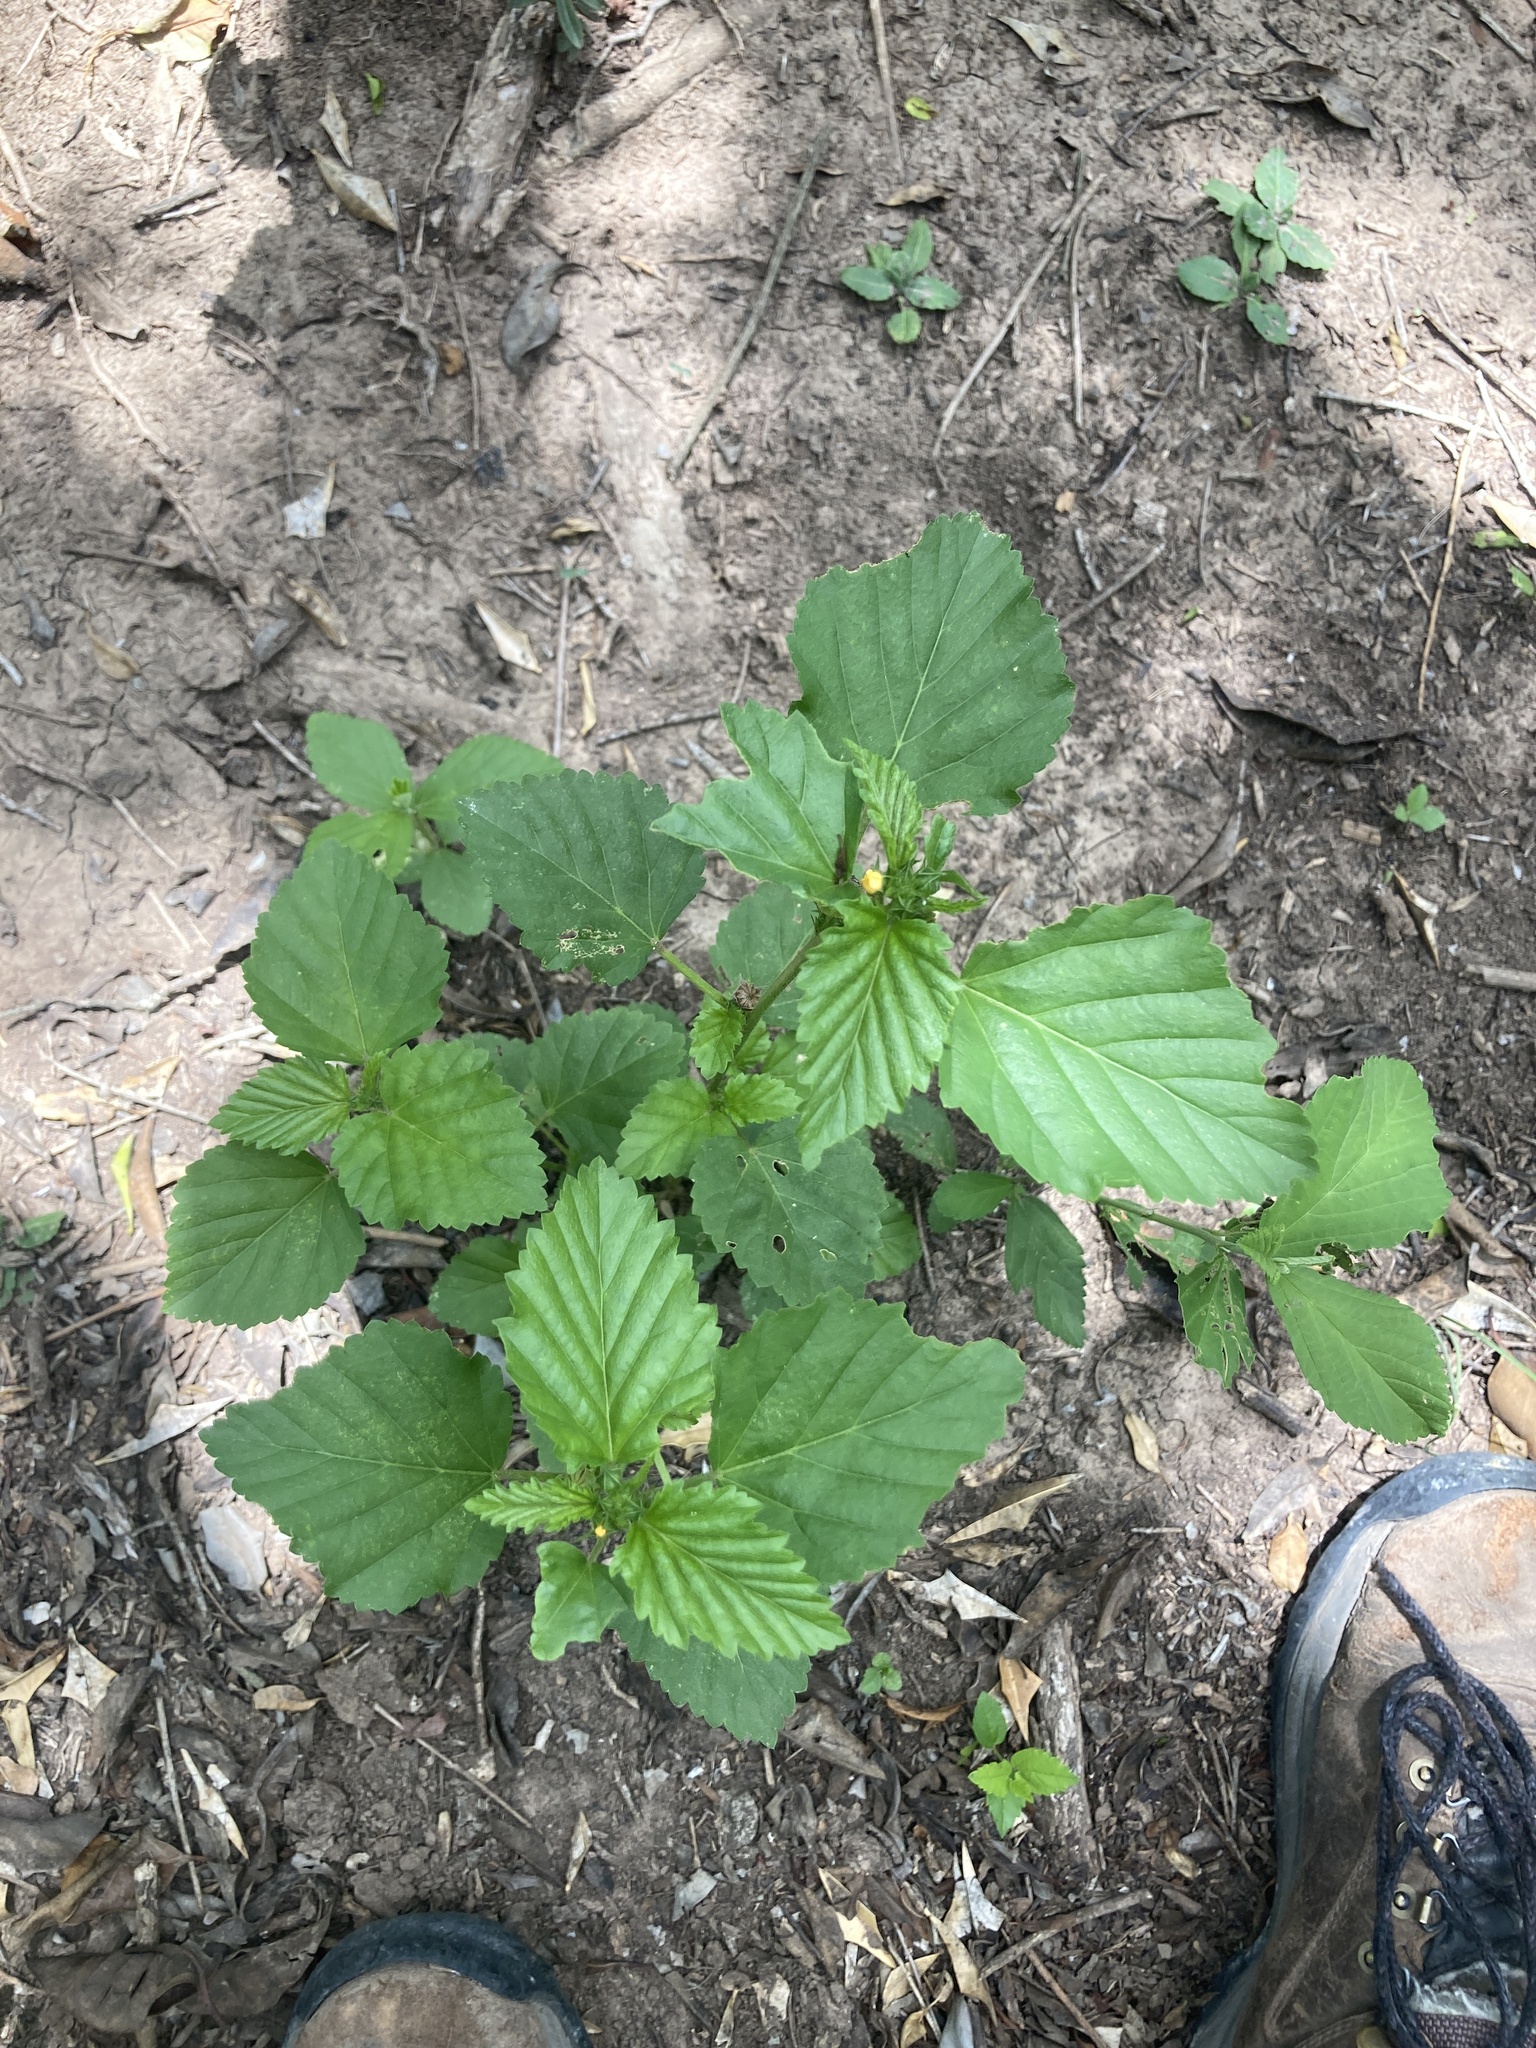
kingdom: Plantae
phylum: Tracheophyta
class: Magnoliopsida
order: Malvales
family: Malvaceae
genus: Malvastrum
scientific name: Malvastrum coromandelianum
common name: Threelobe false mallow
